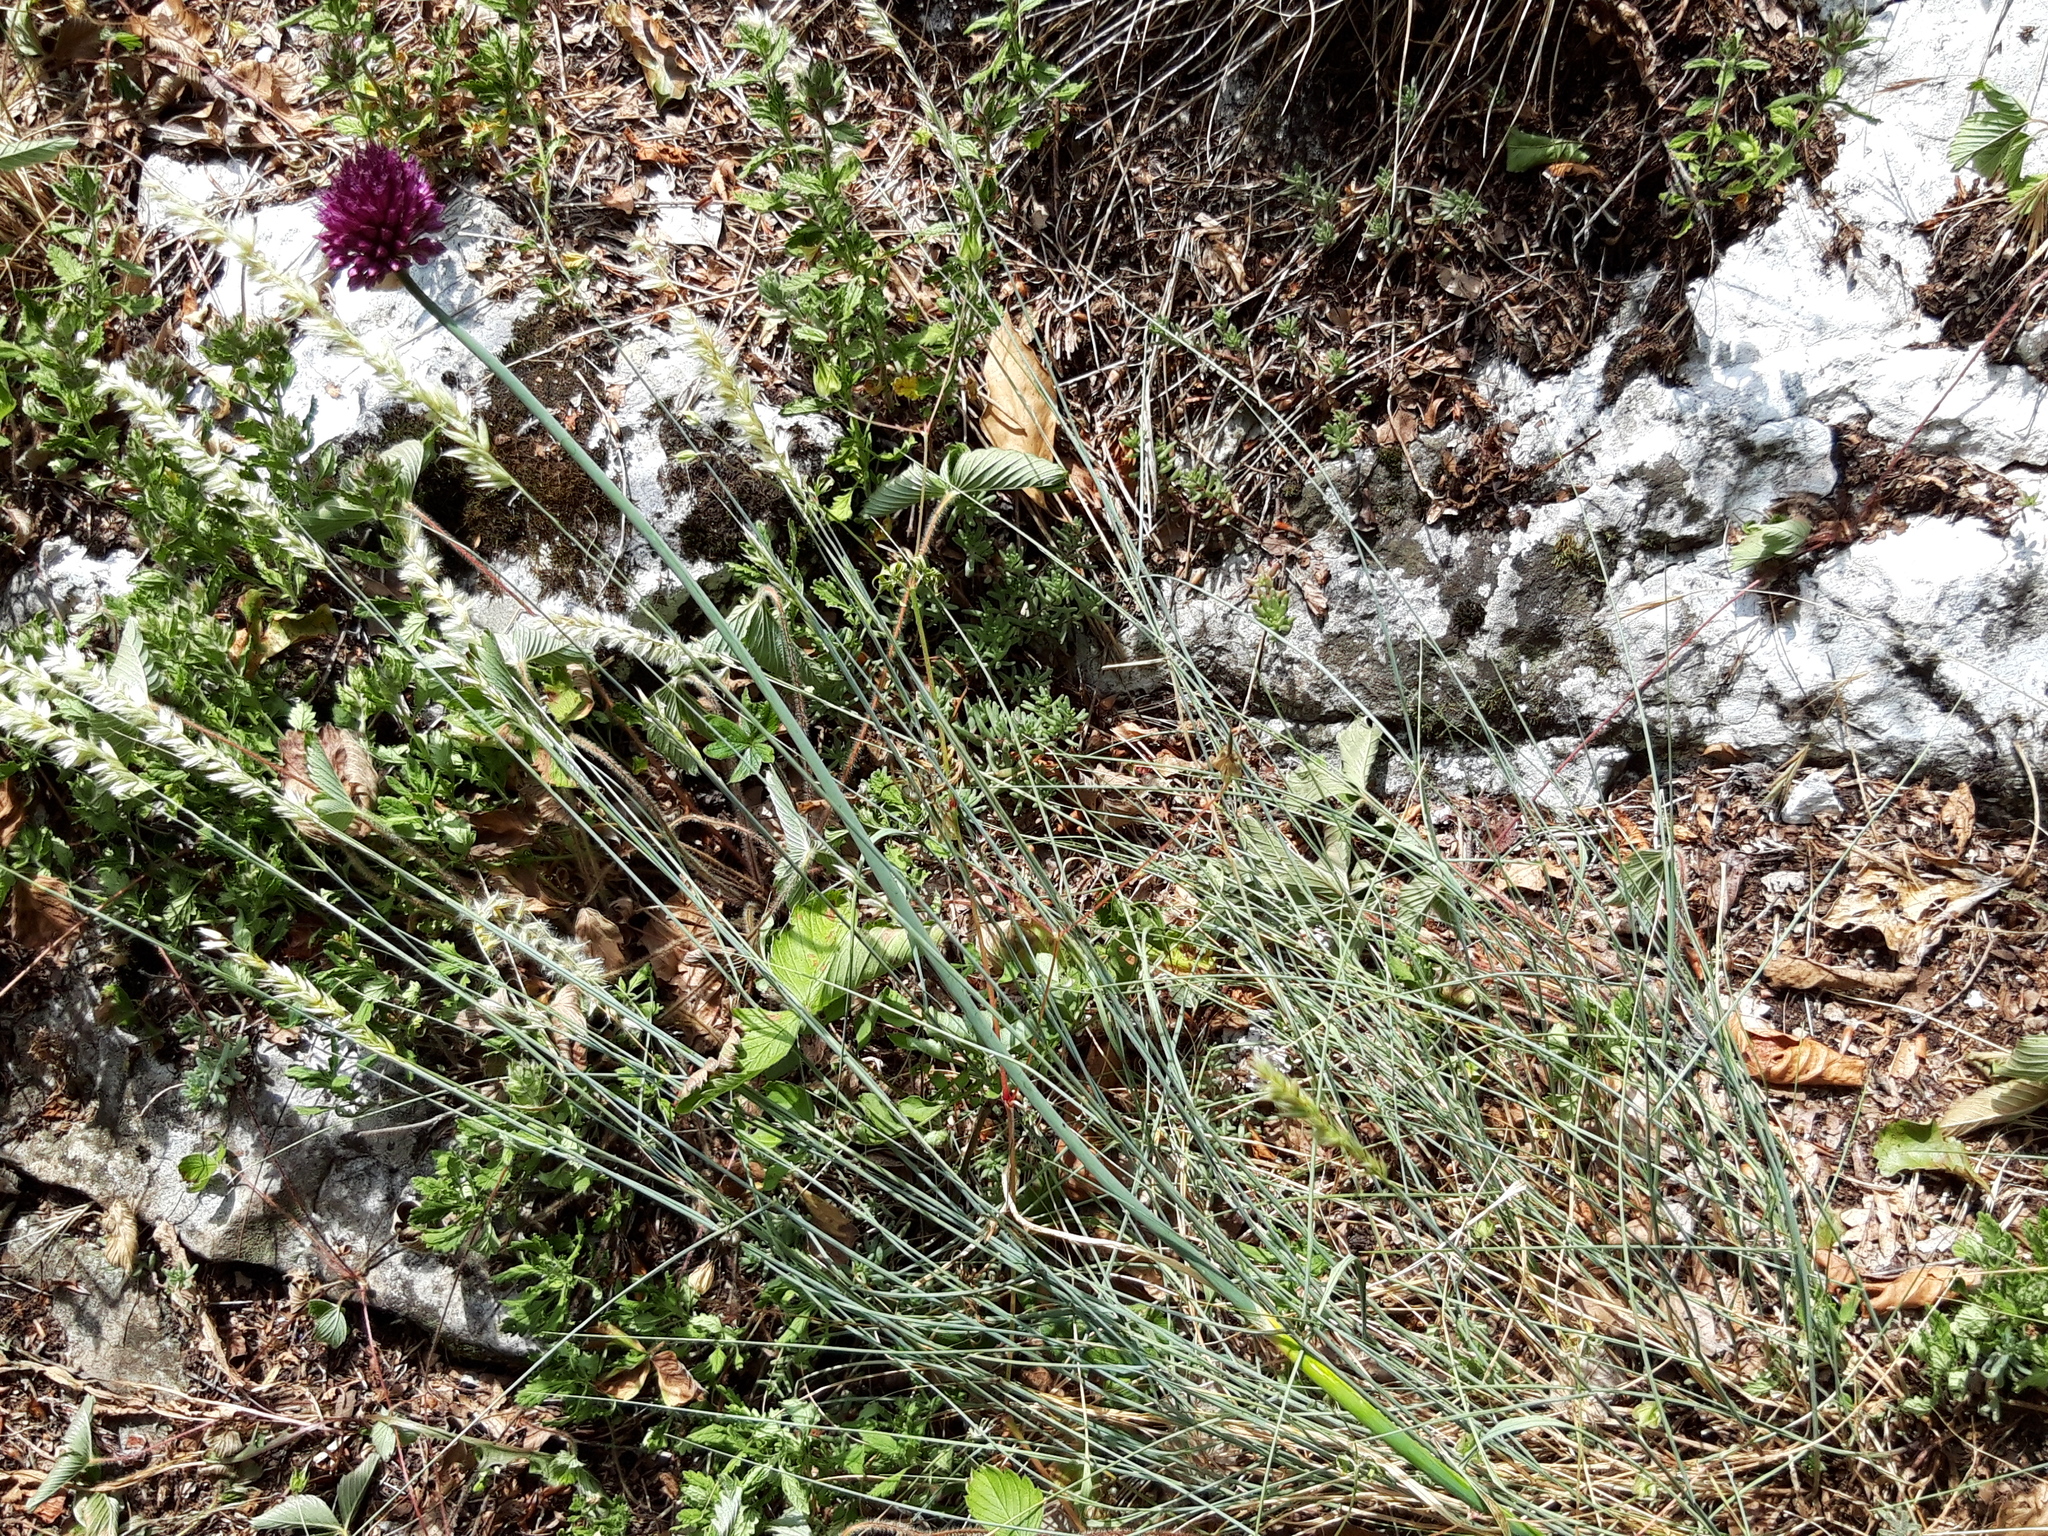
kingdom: Plantae
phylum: Tracheophyta
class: Liliopsida
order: Asparagales
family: Amaryllidaceae
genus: Allium
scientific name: Allium sphaerocephalon
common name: Round-headed leek
